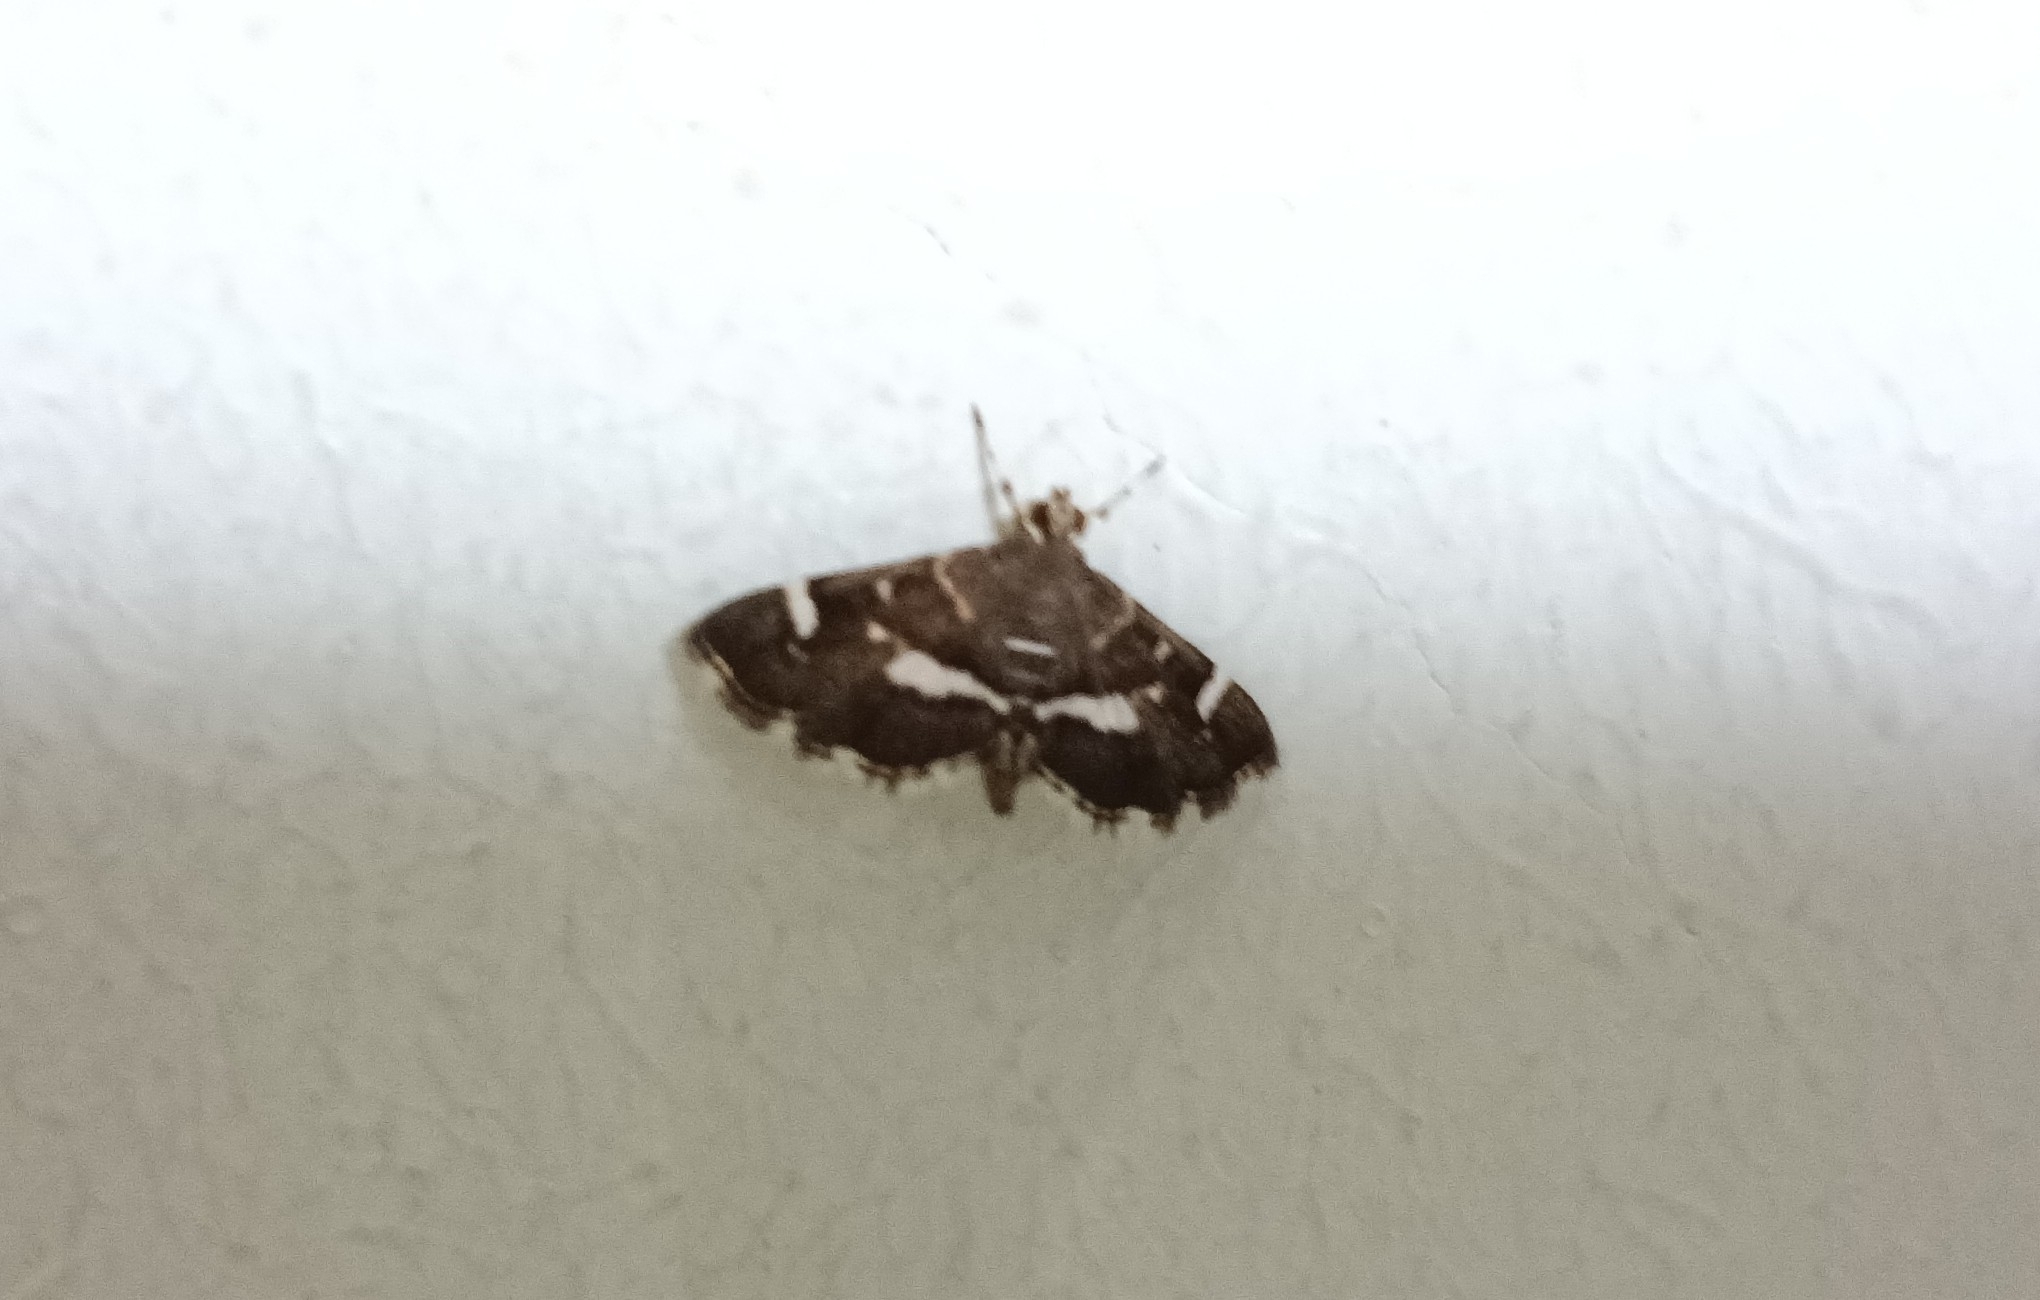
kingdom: Animalia
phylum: Arthropoda
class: Insecta
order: Lepidoptera
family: Crambidae
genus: Hymenia
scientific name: Hymenia perspectalis
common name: Spotted beet webworm
